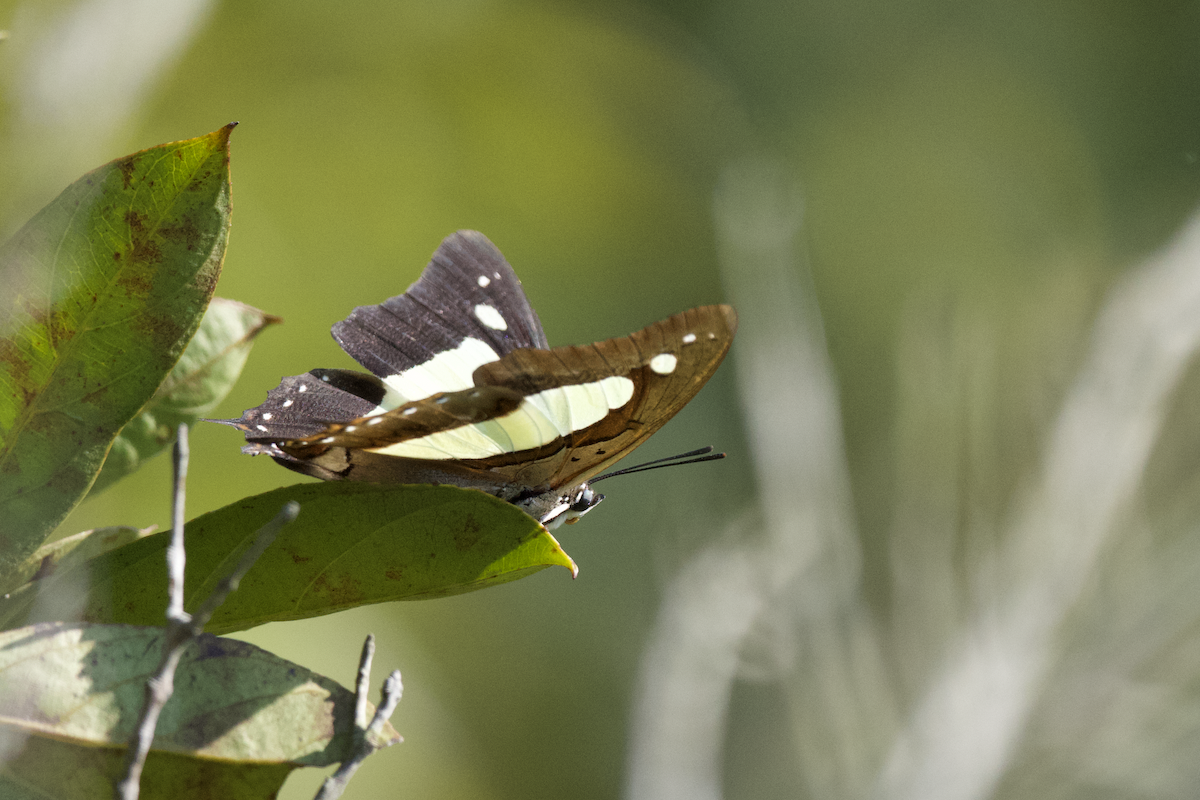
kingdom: Animalia
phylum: Arthropoda
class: Insecta
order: Lepidoptera
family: Nymphalidae
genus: Polyura
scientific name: Polyura athamas
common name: Common nawab
